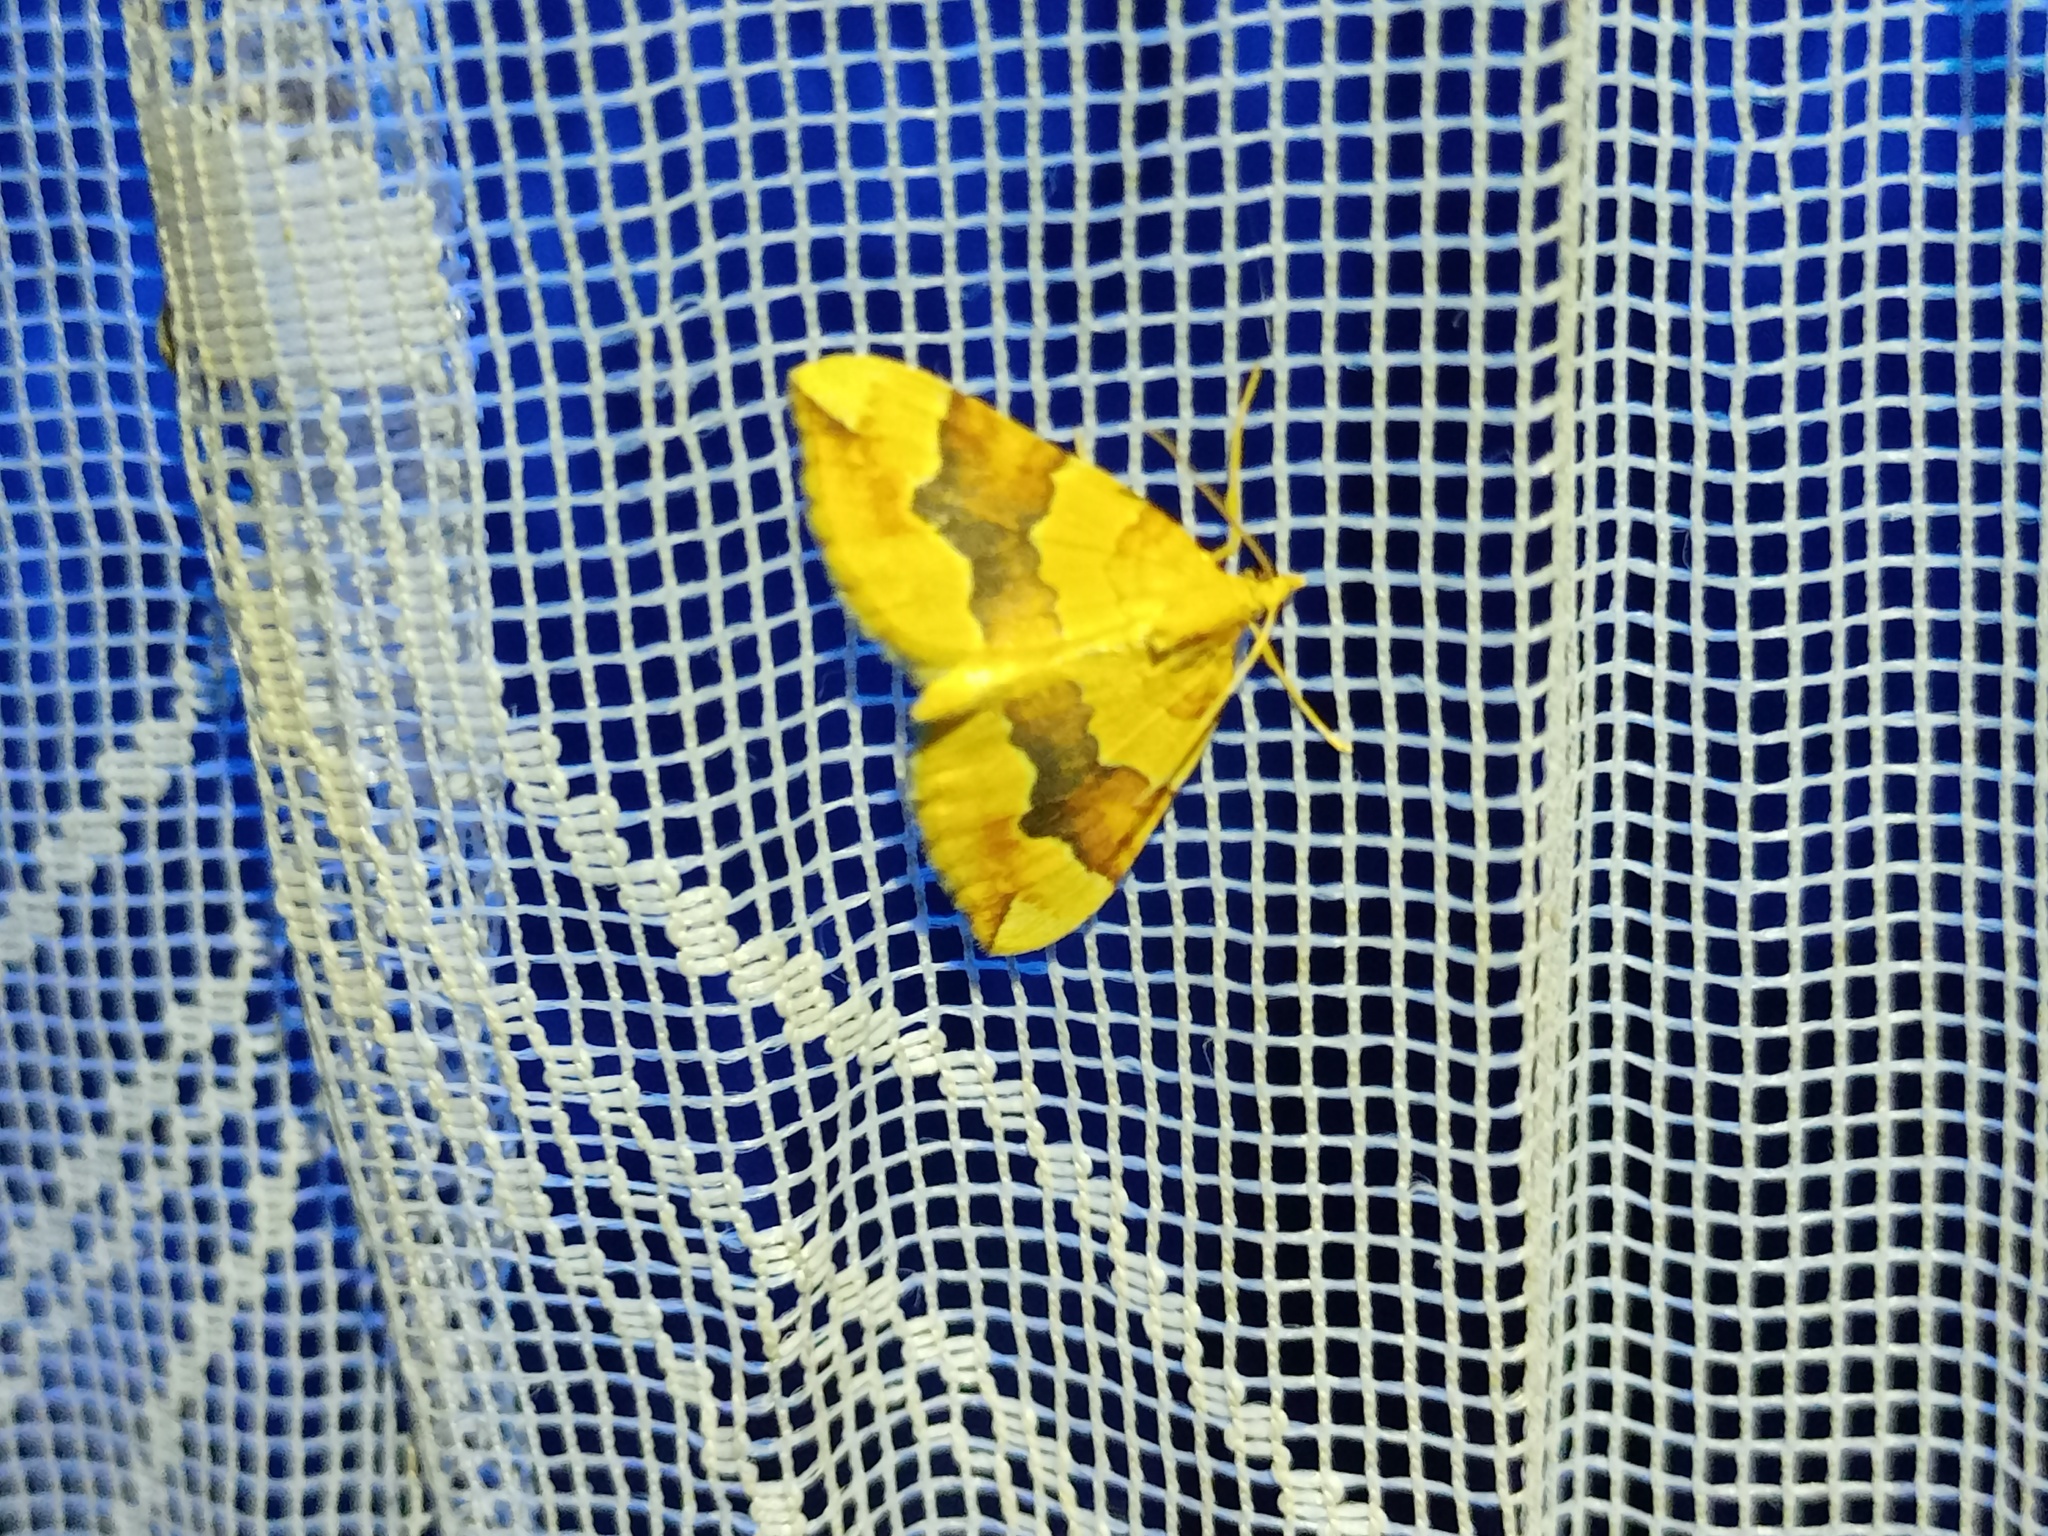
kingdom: Animalia
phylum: Arthropoda
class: Insecta
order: Lepidoptera
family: Geometridae
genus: Cidaria
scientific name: Cidaria fulvata
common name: Barred yellow
